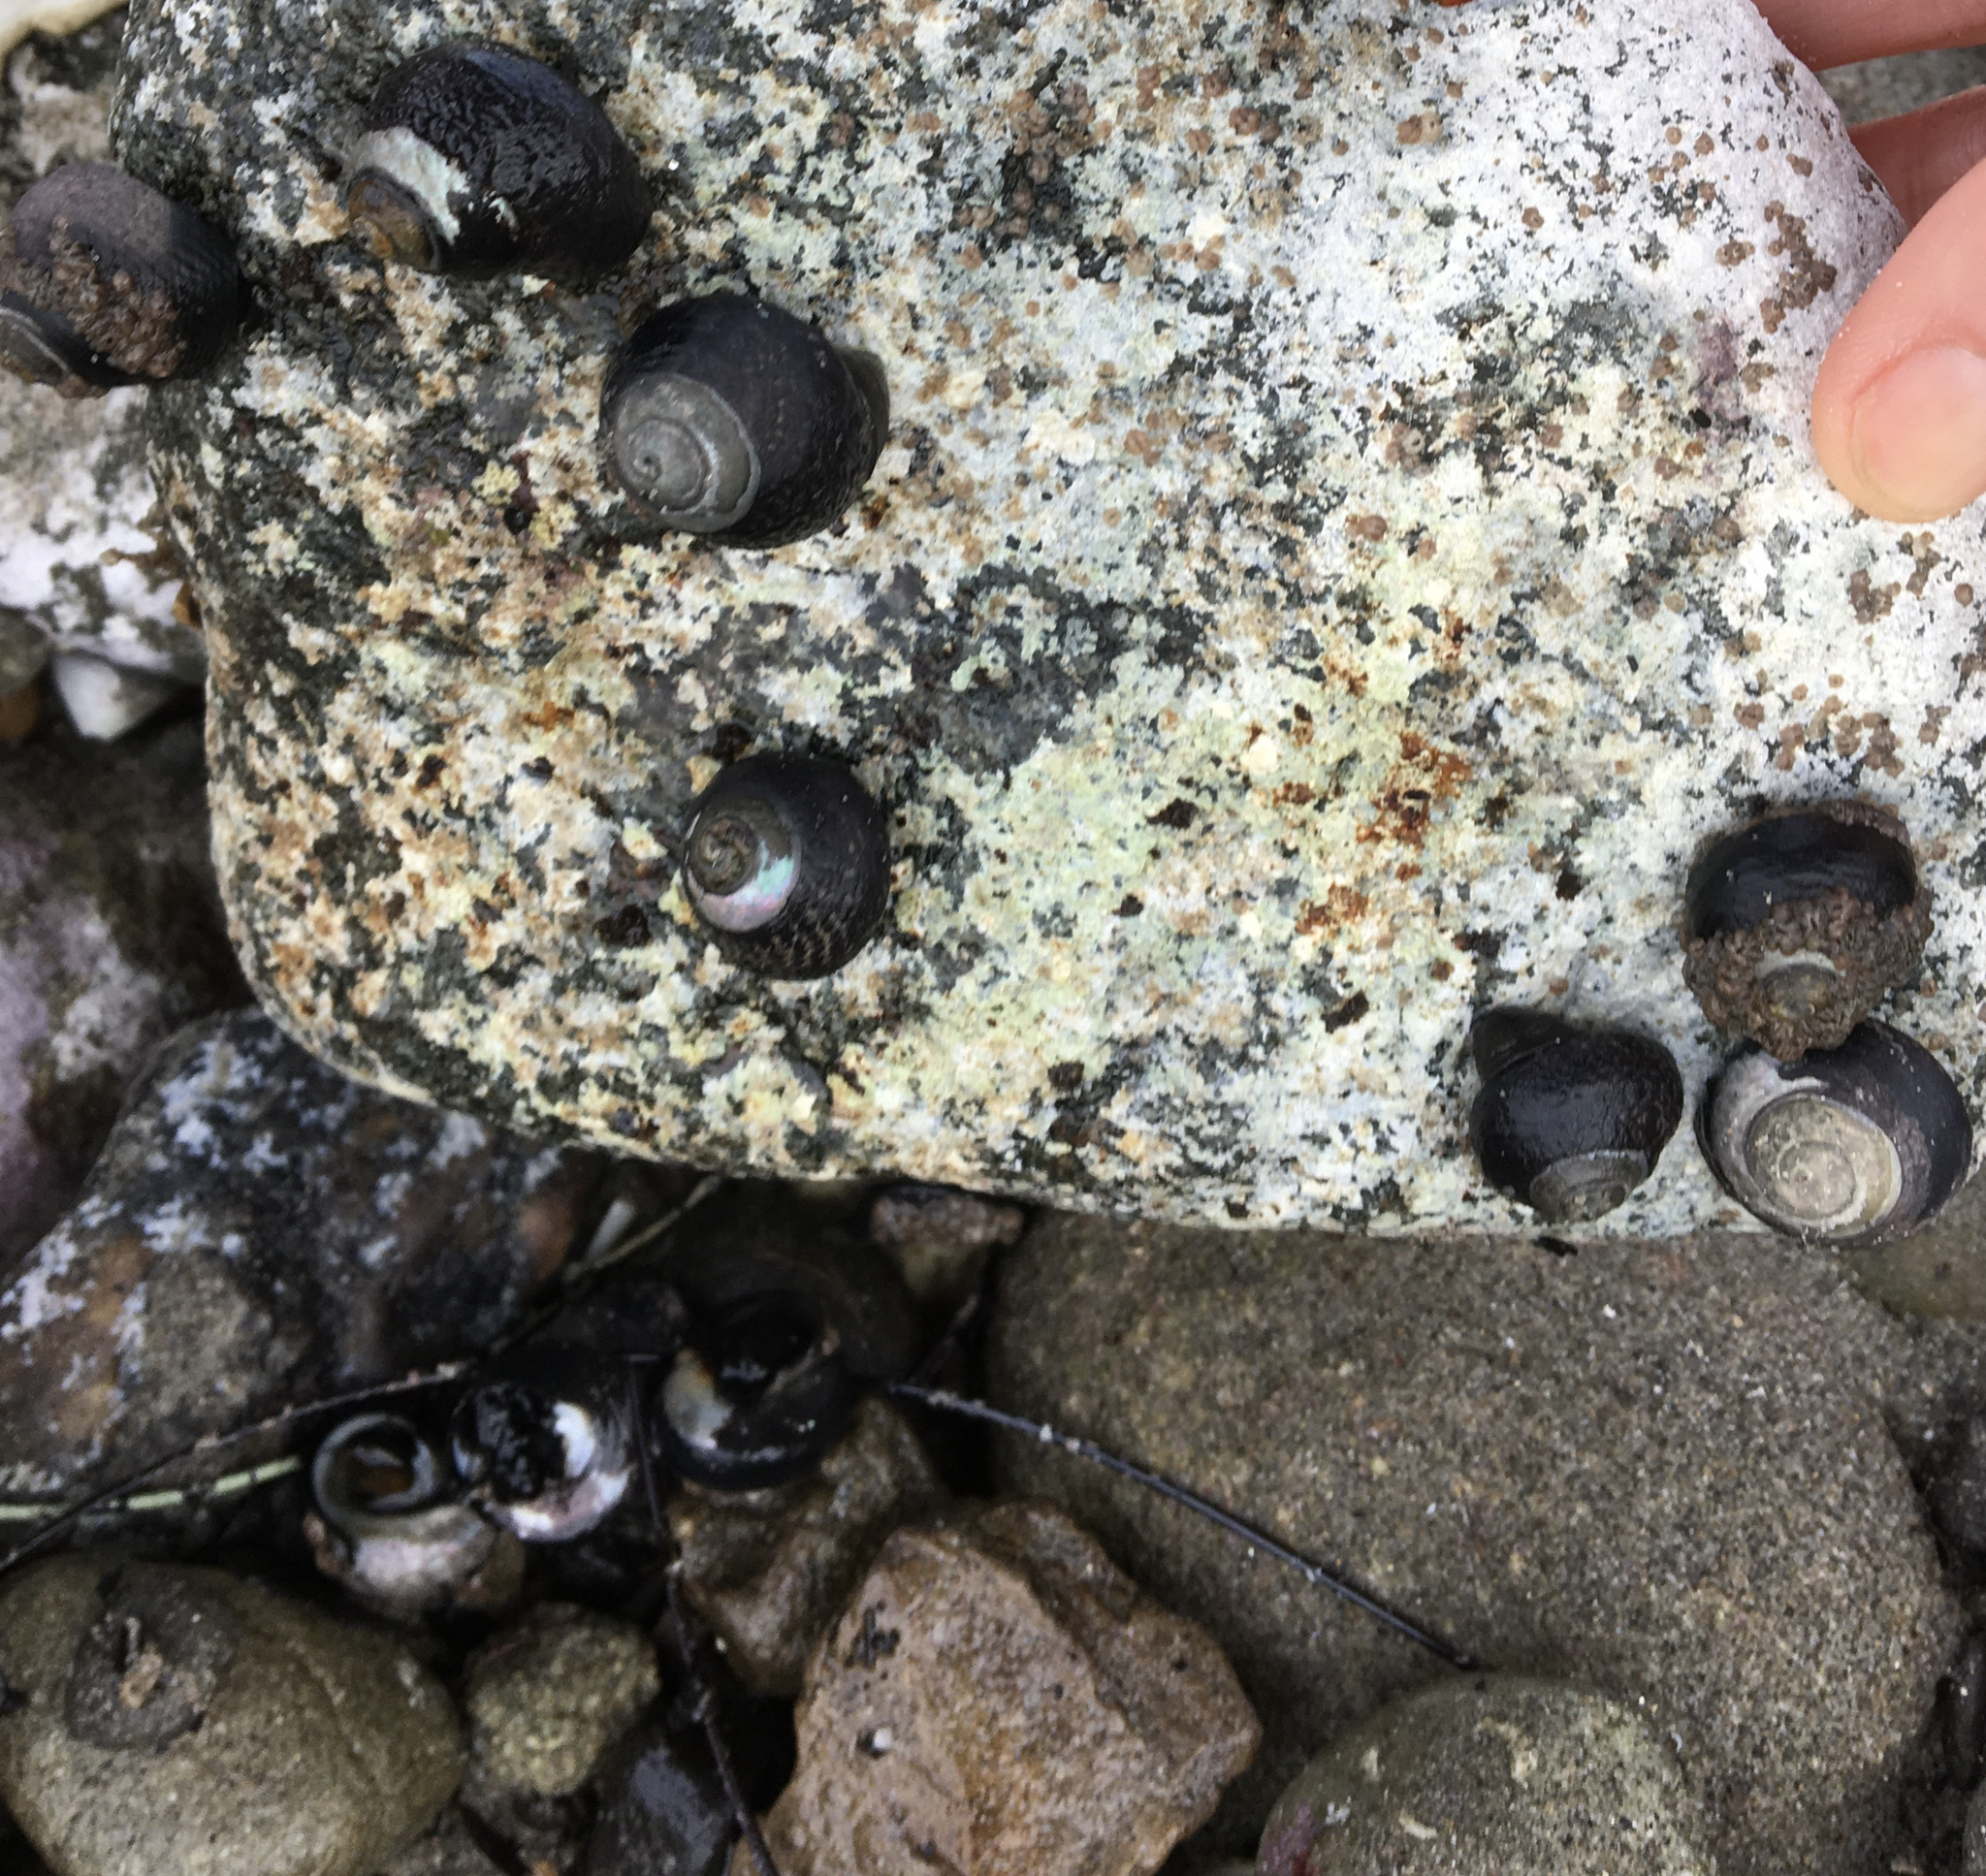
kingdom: Animalia
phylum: Mollusca
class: Gastropoda
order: Trochida
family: Tegulidae
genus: Tegula
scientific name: Tegula funebralis
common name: Black tegula
